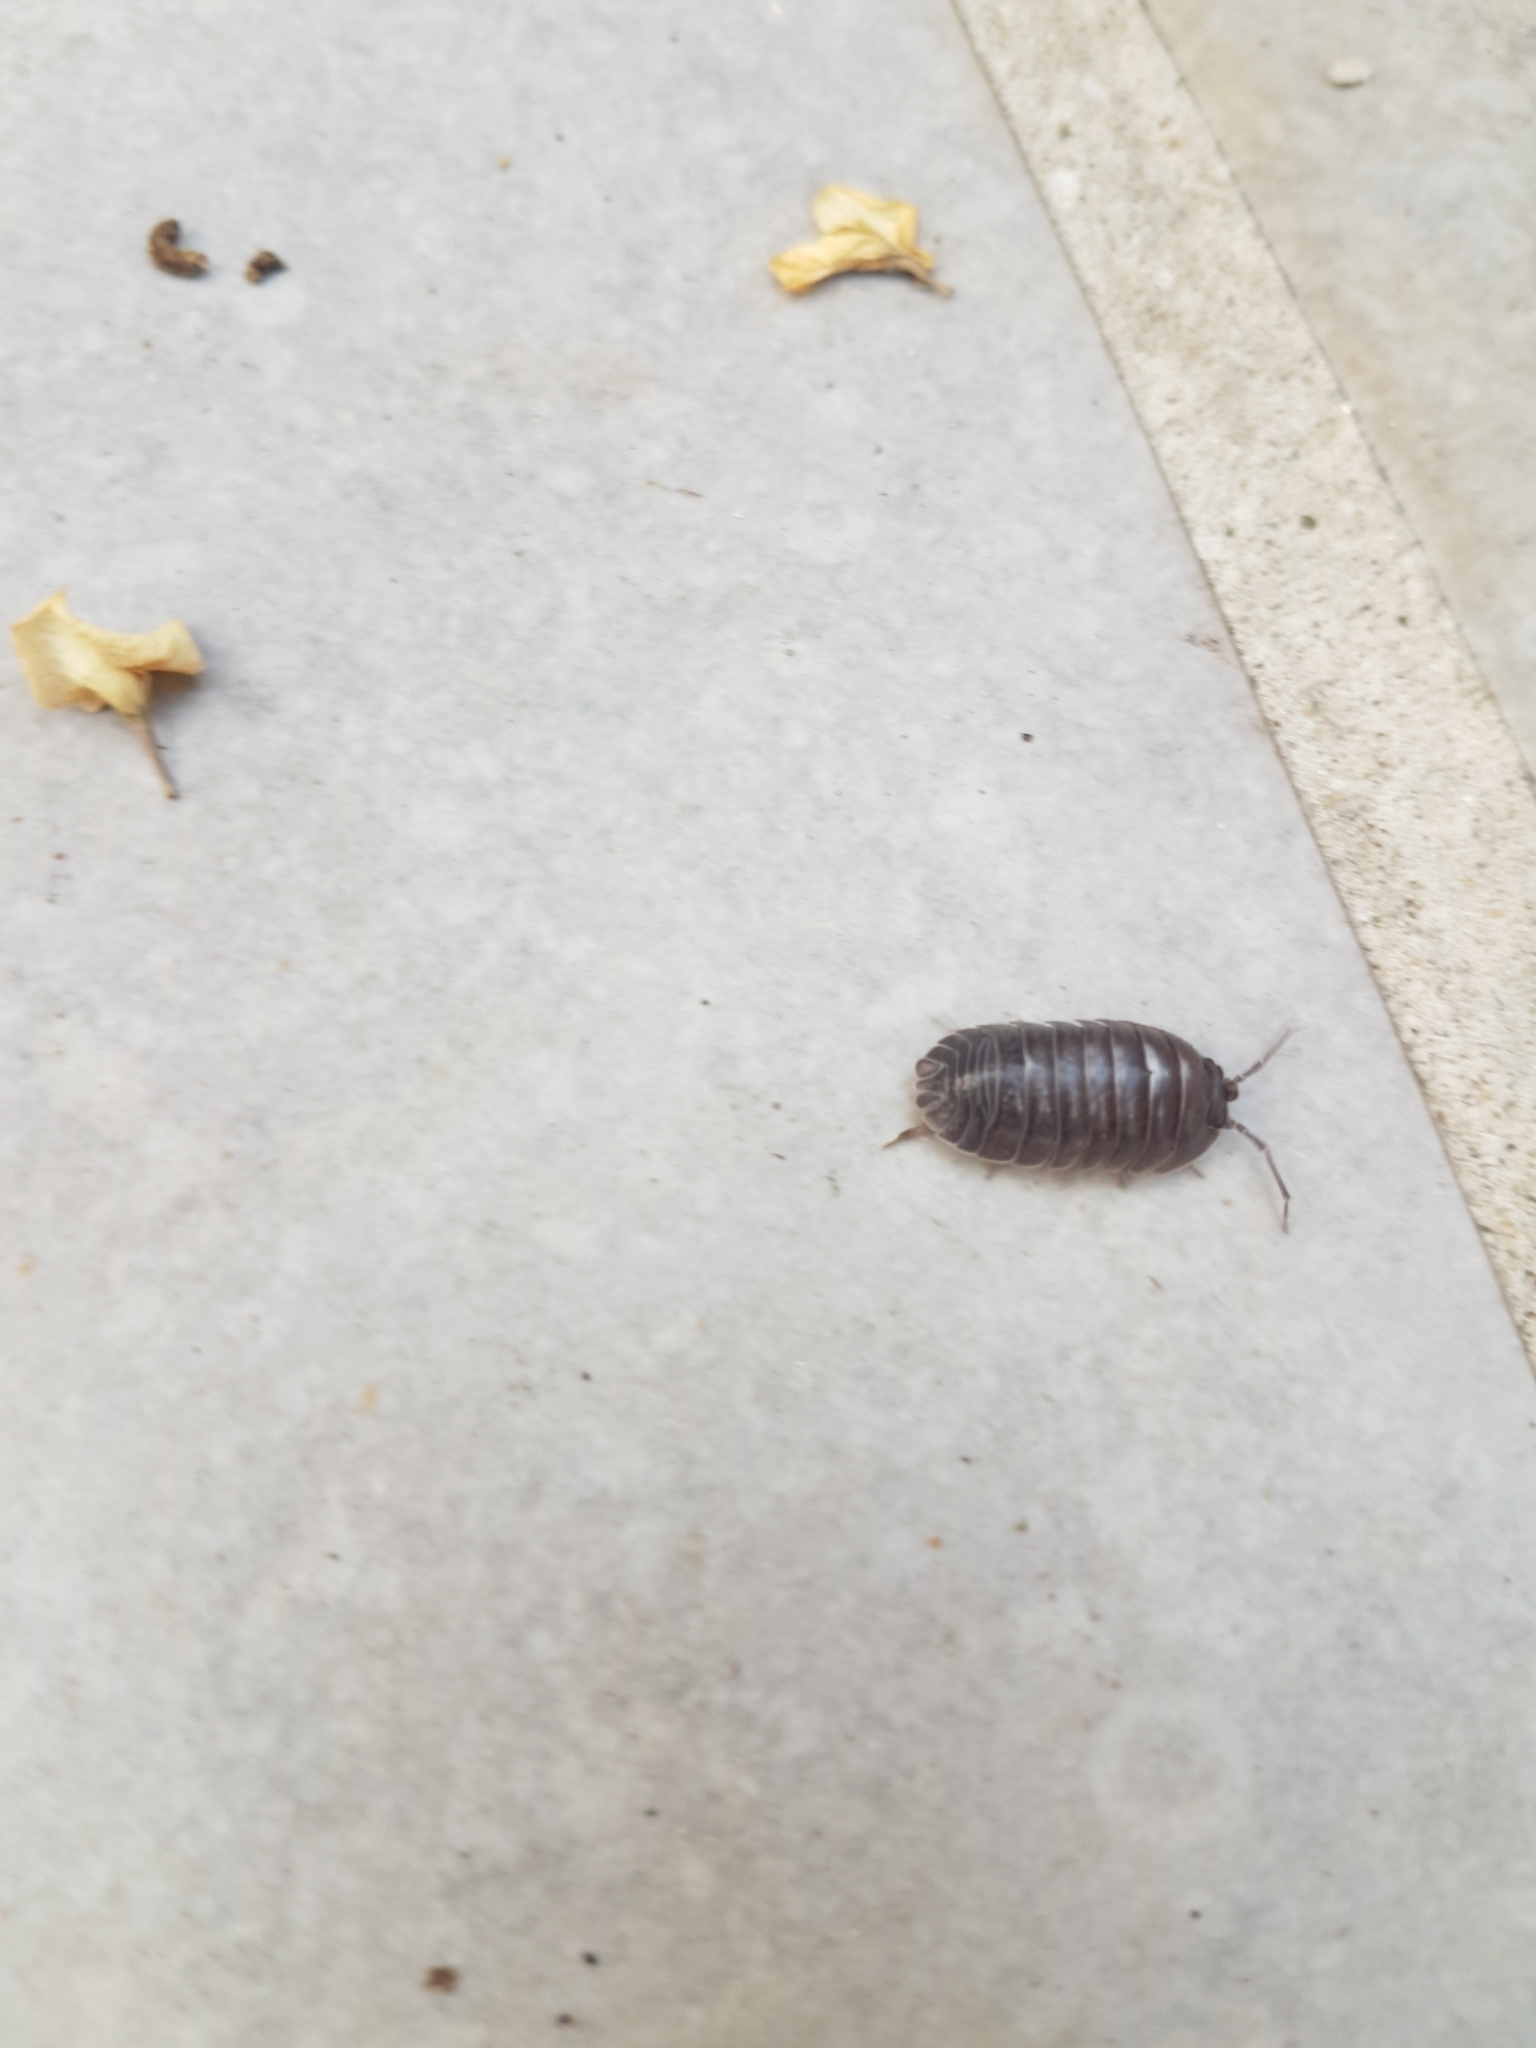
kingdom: Animalia
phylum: Arthropoda
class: Malacostraca
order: Isopoda
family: Armadillidiidae
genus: Armadillidium
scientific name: Armadillidium pallasii
